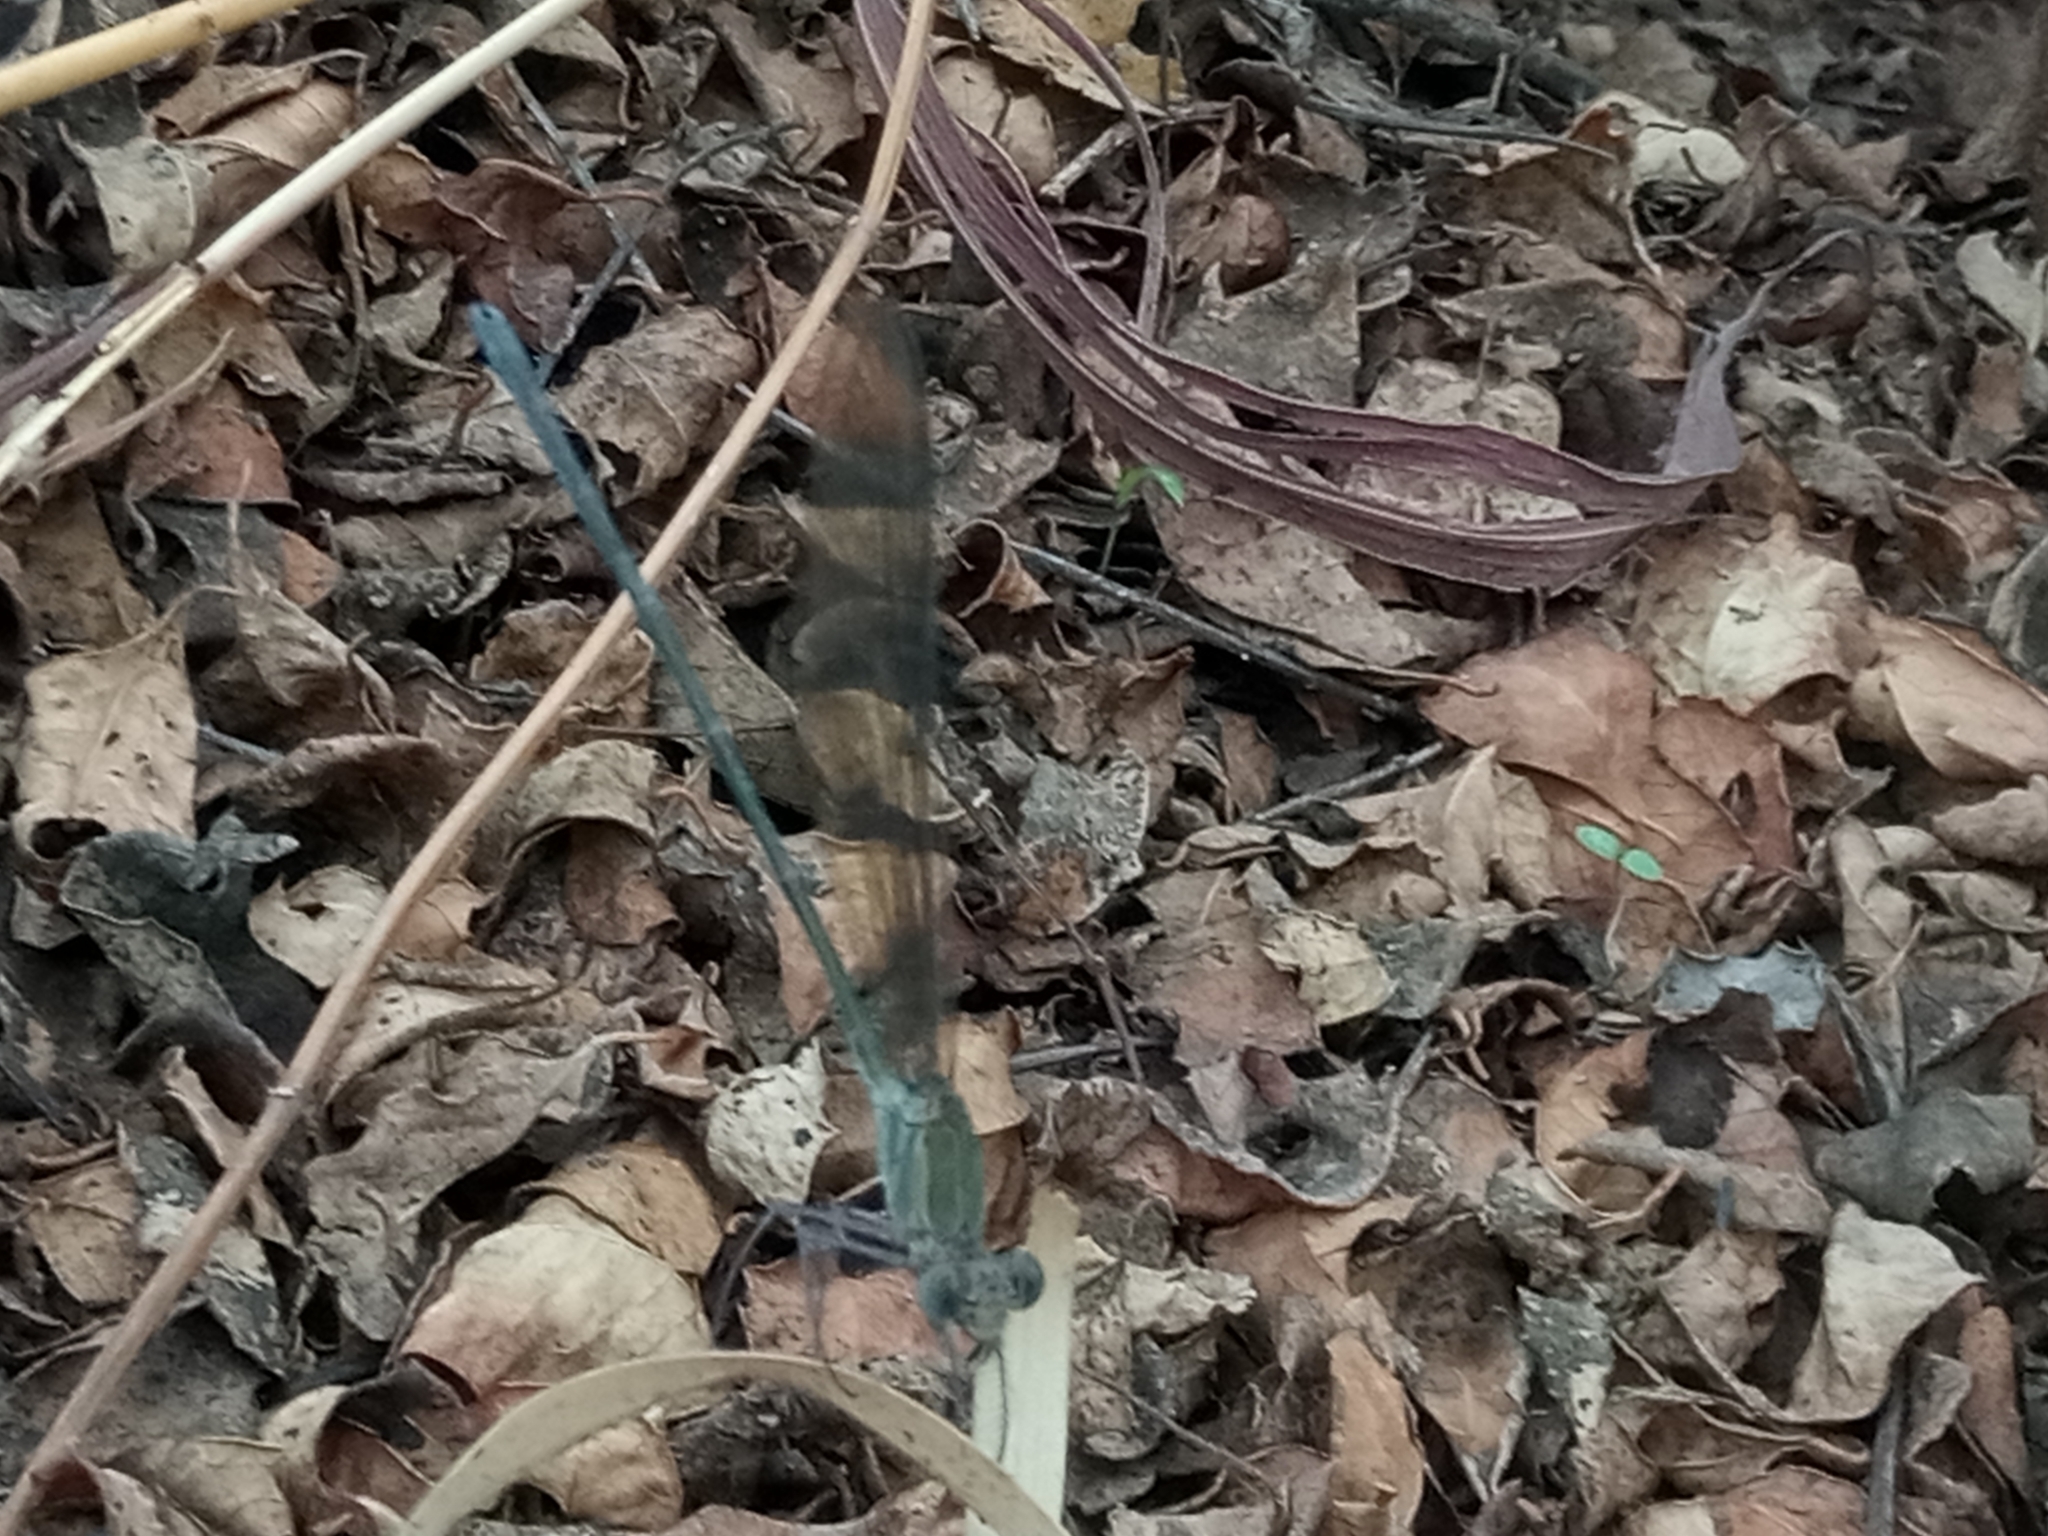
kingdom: Animalia
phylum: Arthropoda
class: Insecta
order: Odonata
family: Calopterygidae
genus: Phaon
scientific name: Phaon iridipennis
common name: Glistening demoiselle
